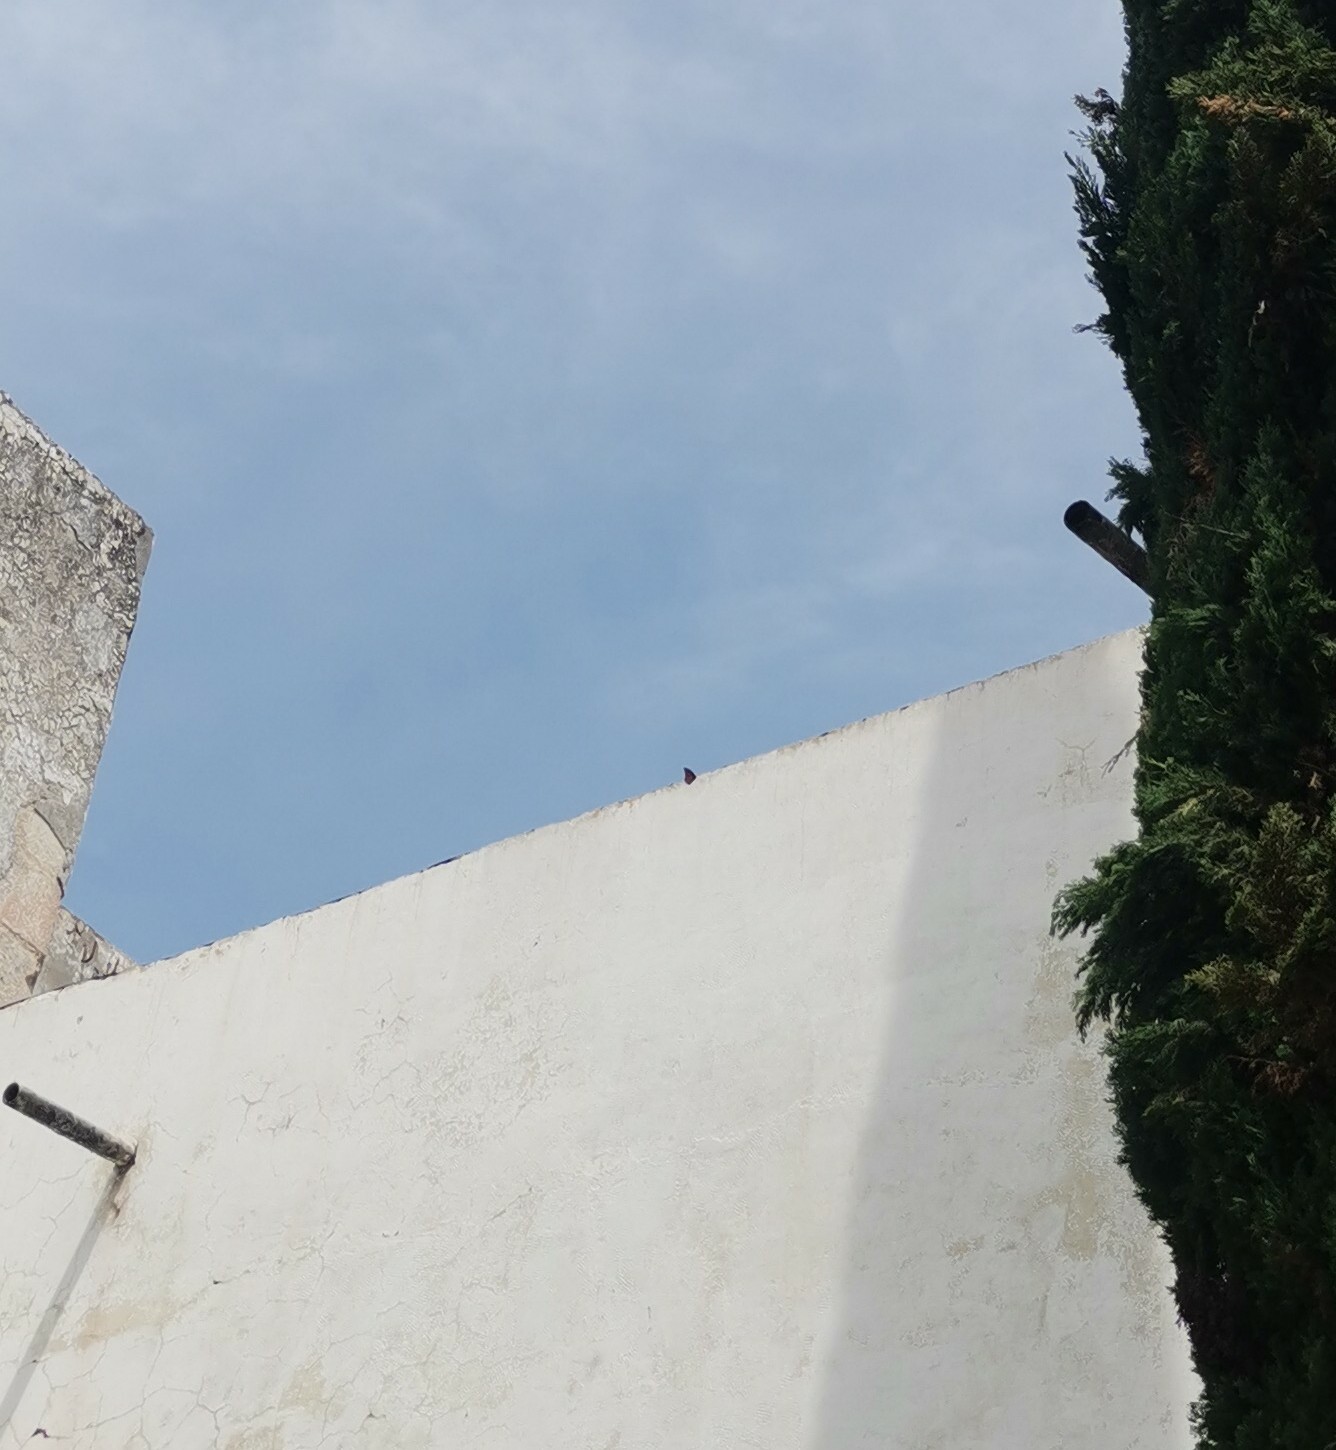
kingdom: Animalia
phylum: Arthropoda
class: Insecta
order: Lepidoptera
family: Nymphalidae
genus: Danaus
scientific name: Danaus plexippus
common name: Monarch
